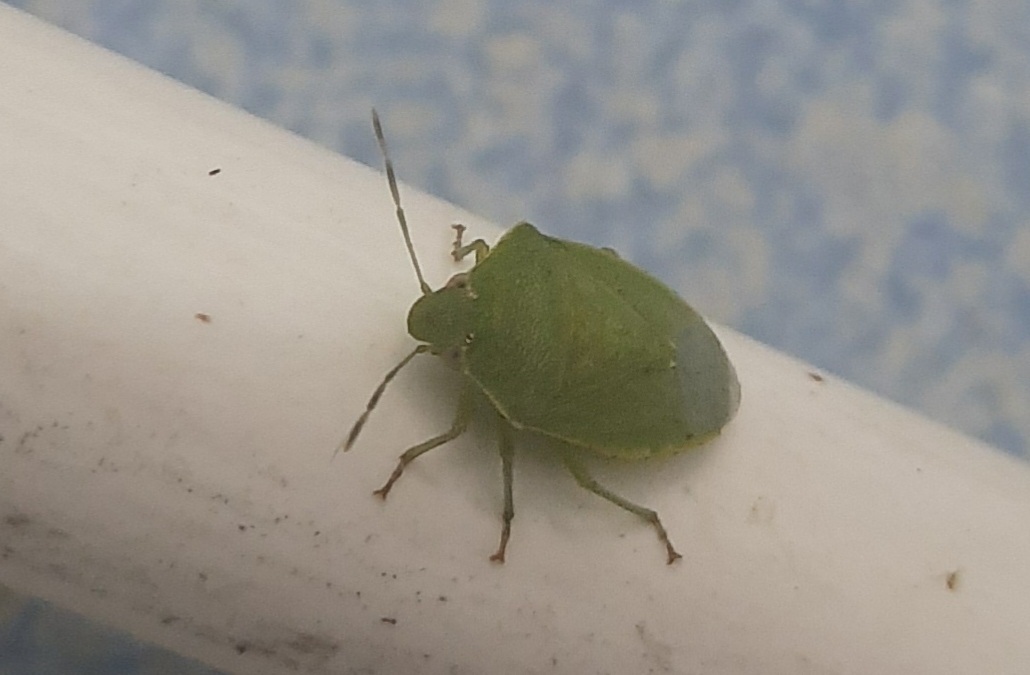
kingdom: Animalia
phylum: Arthropoda
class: Insecta
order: Hemiptera
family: Pentatomidae
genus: Acrosternum
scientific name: Acrosternum gramineum
